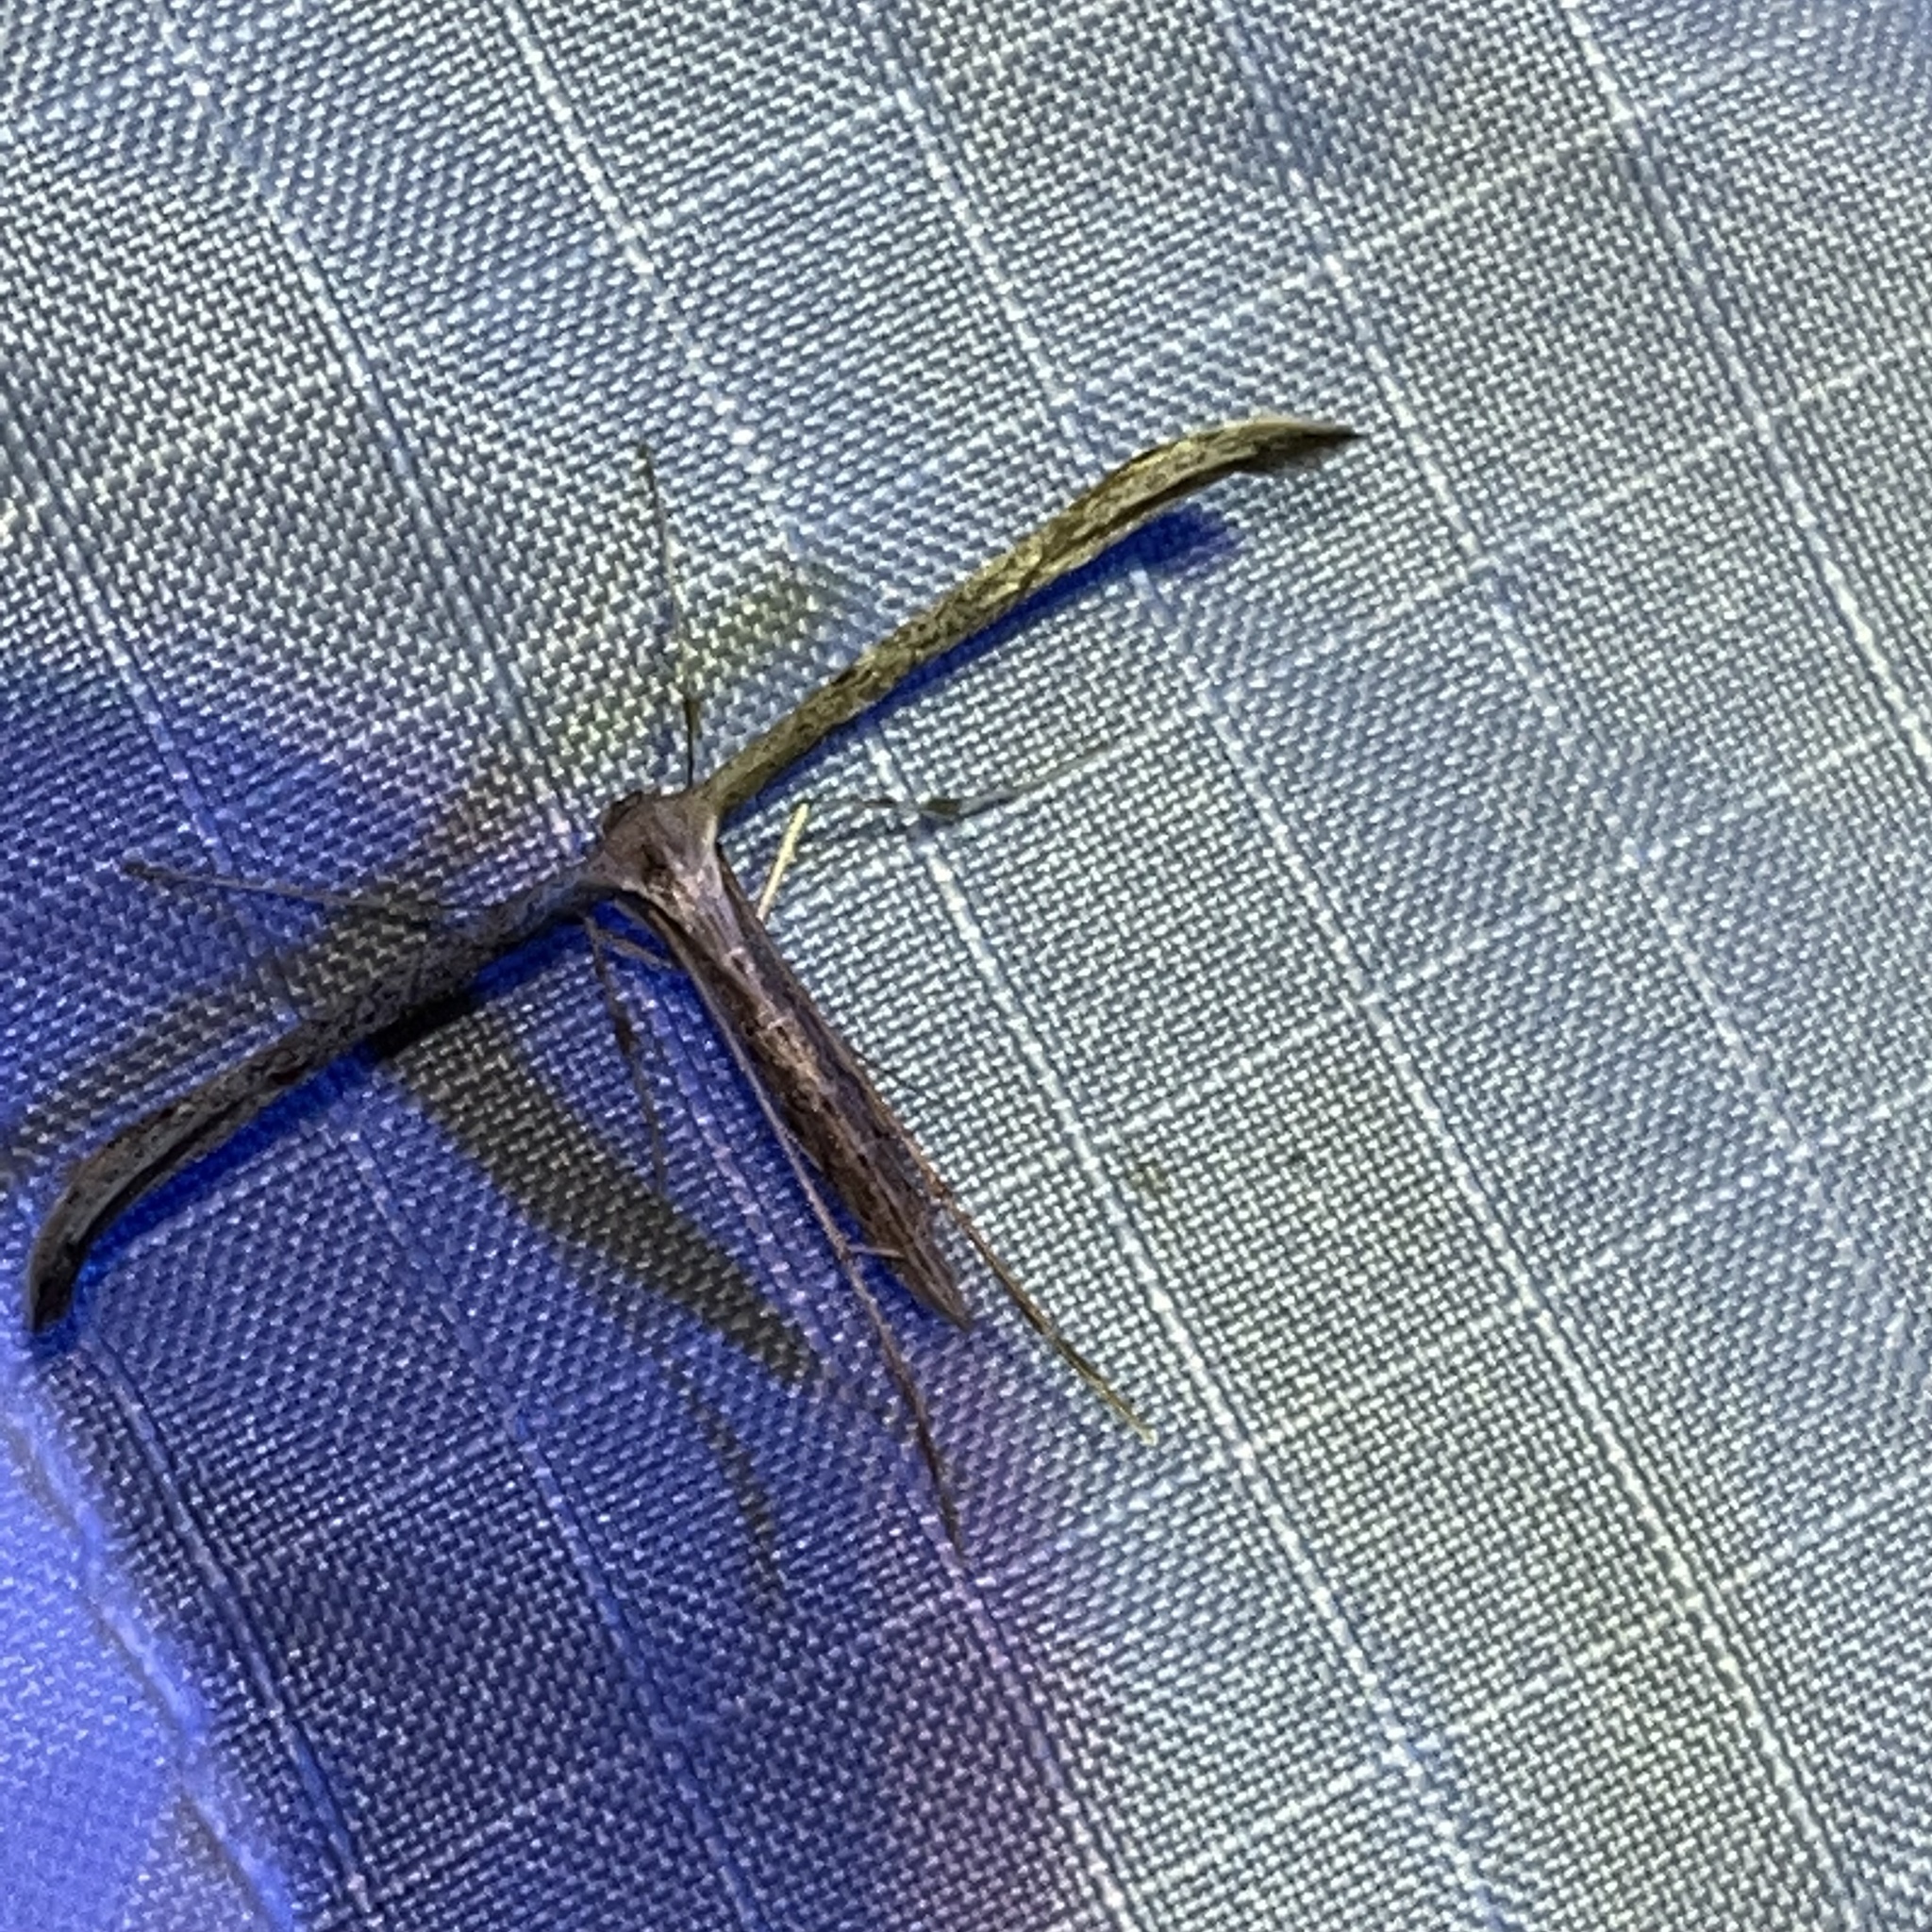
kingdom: Animalia
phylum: Arthropoda
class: Insecta
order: Lepidoptera
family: Pterophoridae
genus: Emmelina
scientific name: Emmelina monodactyla
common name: Common plume
